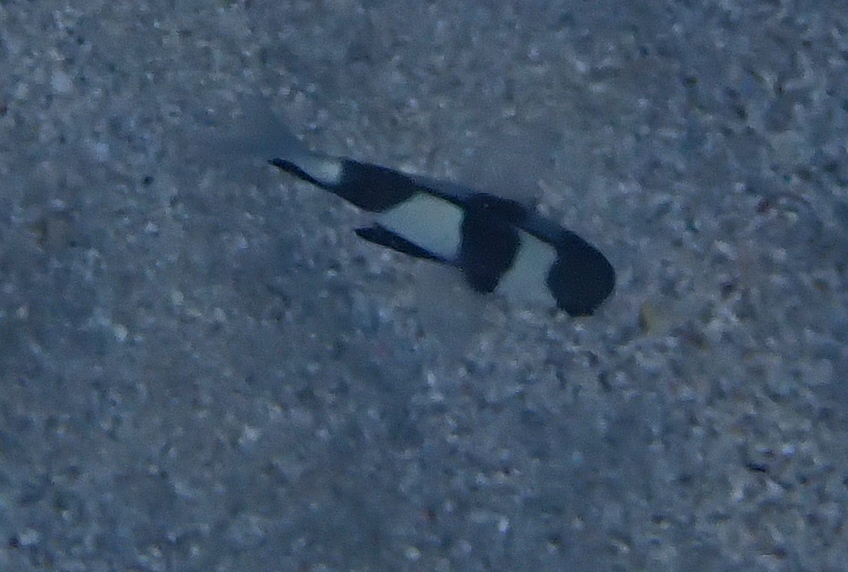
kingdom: Animalia
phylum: Chordata
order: Perciformes
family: Pomacentridae
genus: Dascyllus
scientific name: Dascyllus abudafur
